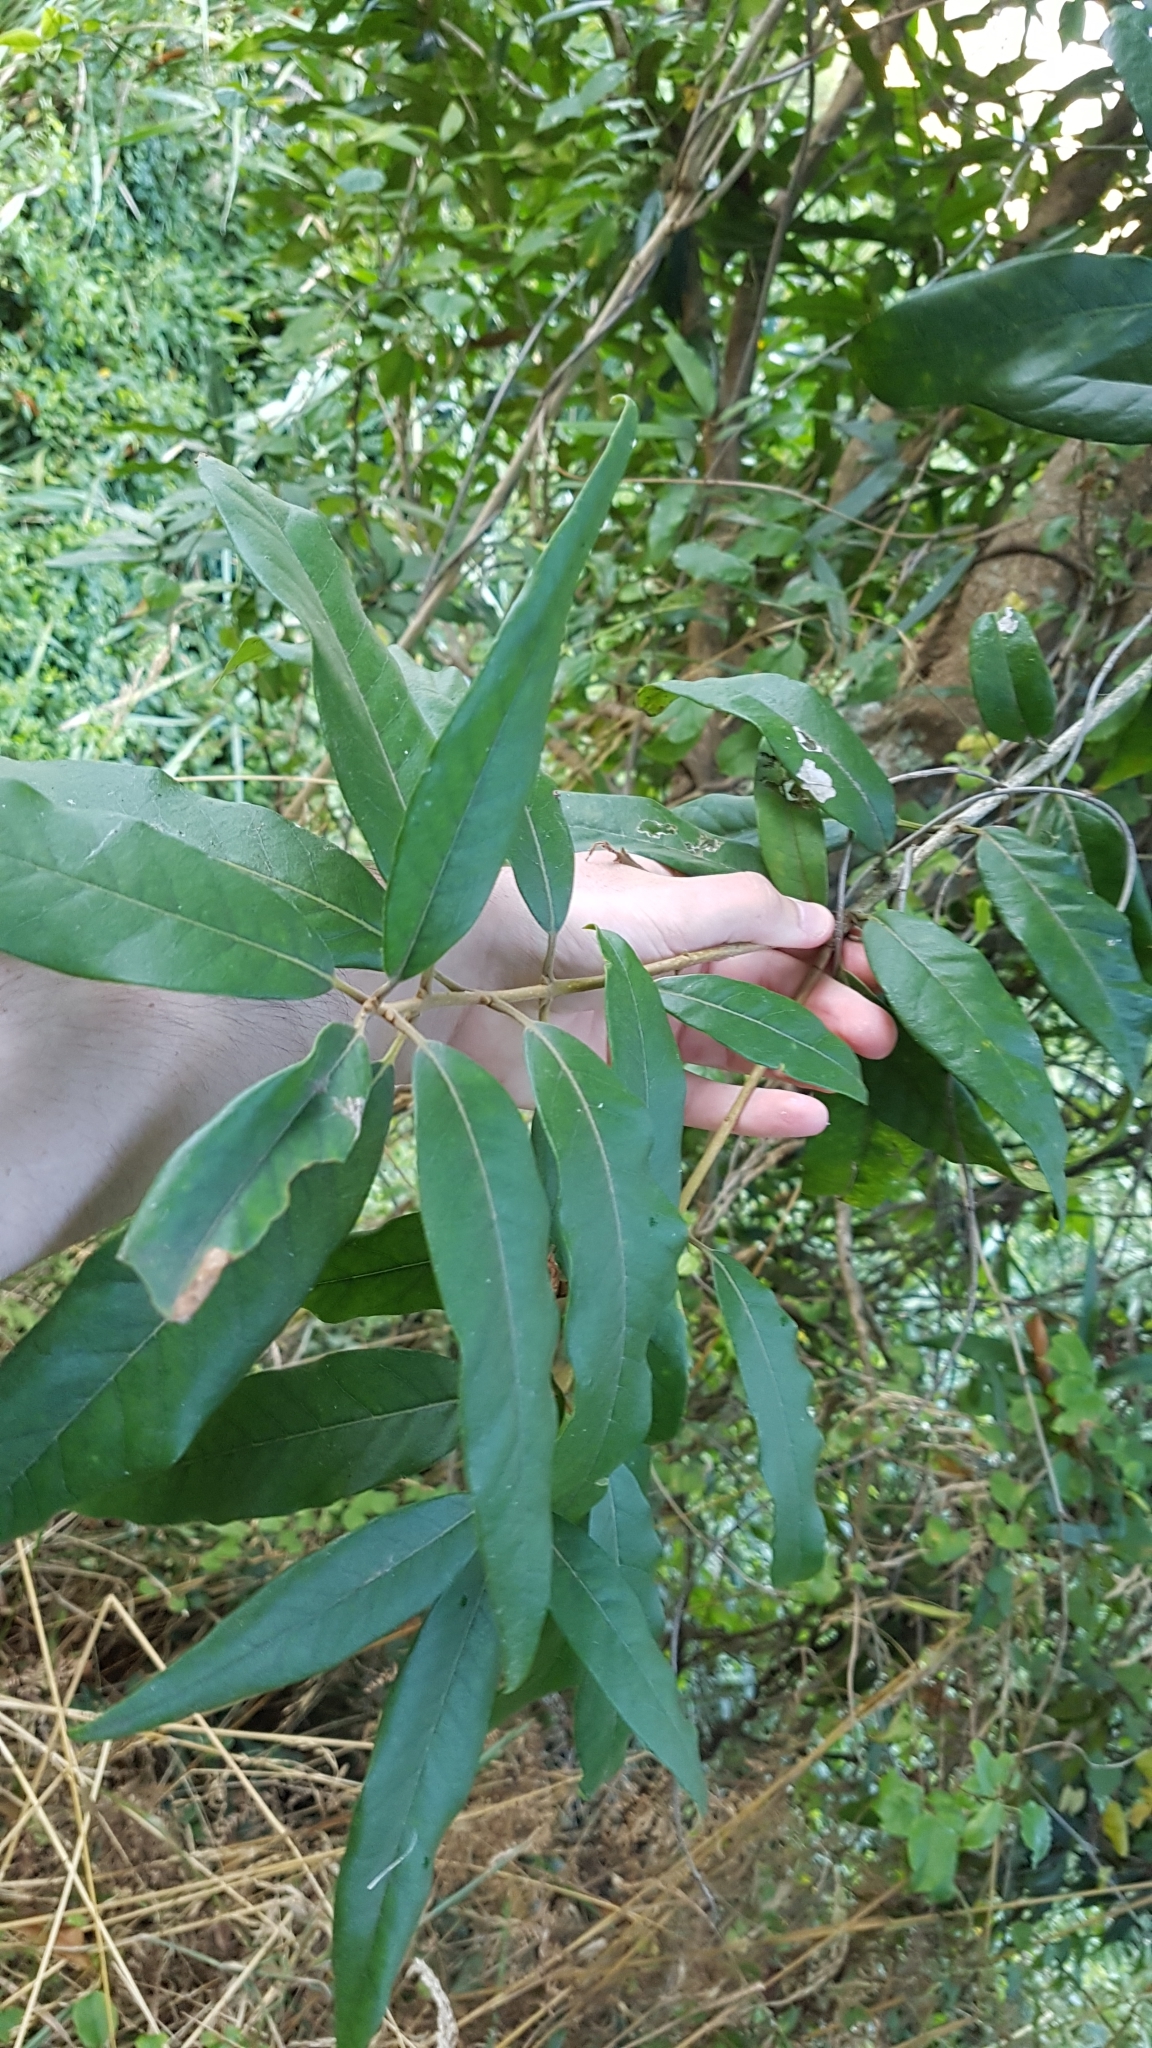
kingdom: Plantae
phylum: Tracheophyta
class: Magnoliopsida
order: Lamiales
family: Oleaceae
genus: Nestegis
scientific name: Nestegis cunninghamii
